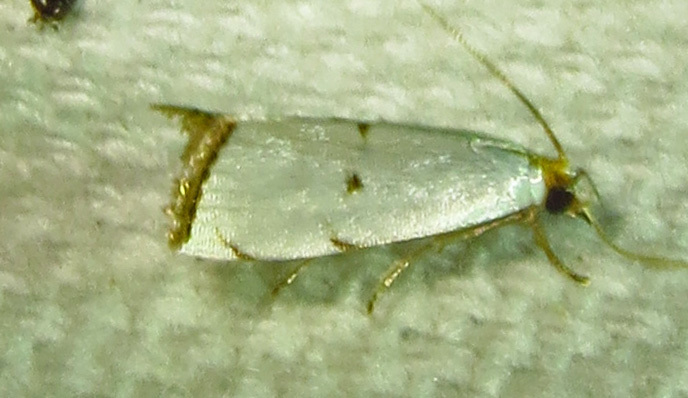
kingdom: Animalia
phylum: Arthropoda
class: Insecta
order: Lepidoptera
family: Crambidae
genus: Argyria
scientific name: Argyria pusillalis
